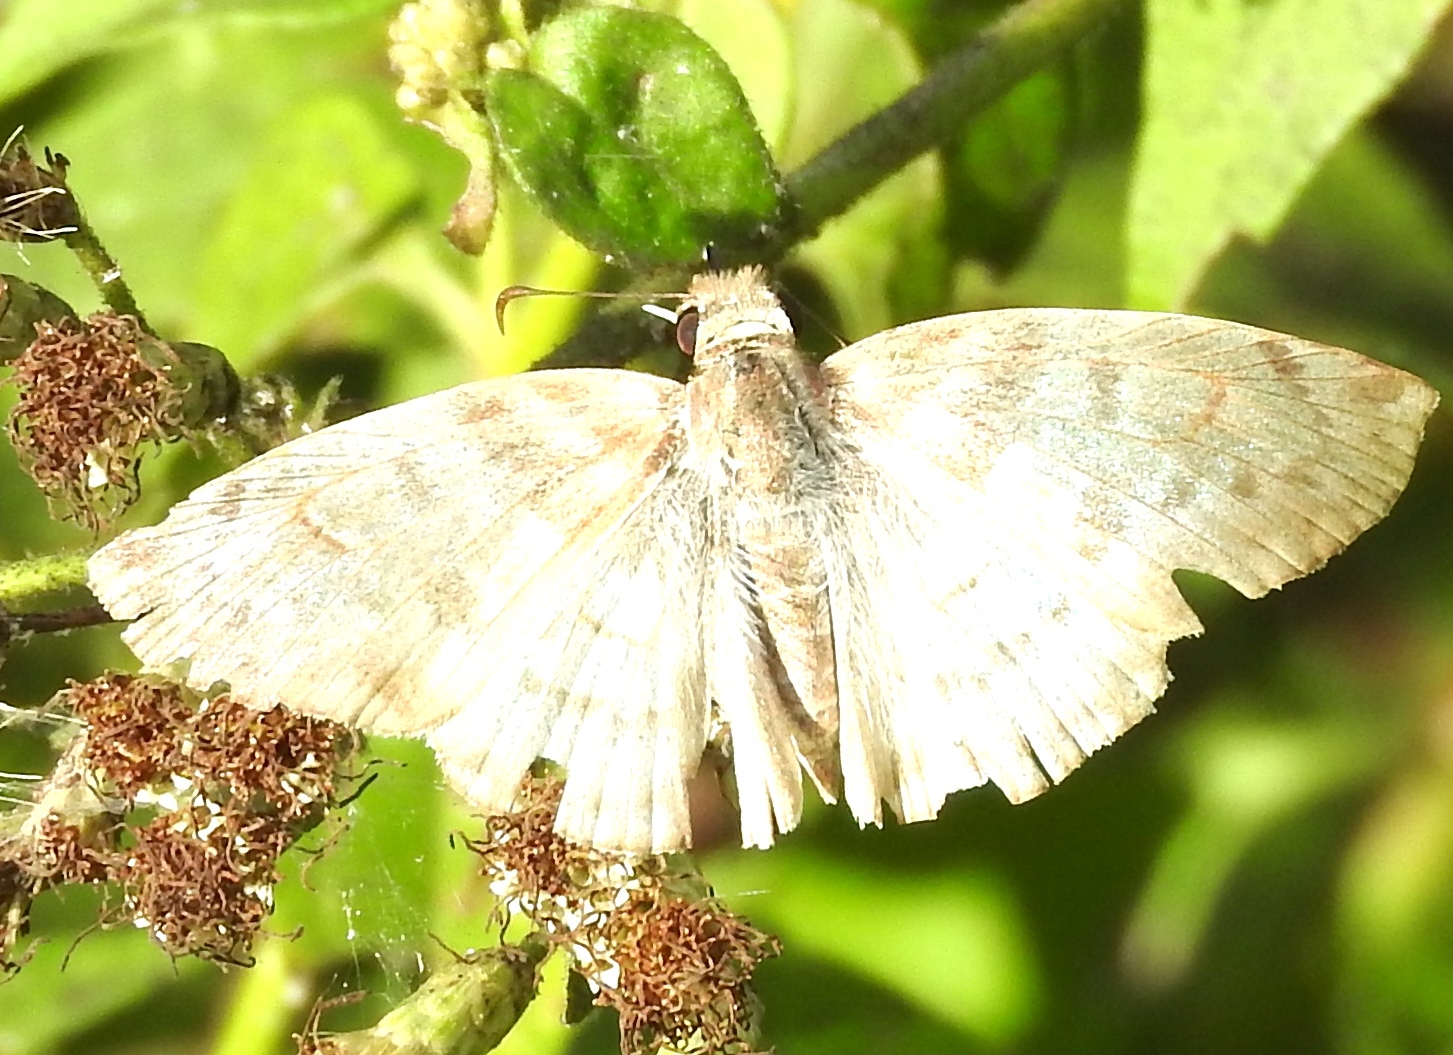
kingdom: Animalia
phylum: Arthropoda
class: Insecta
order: Lepidoptera
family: Hesperiidae
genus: Mylon
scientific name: Mylon pelopidas
